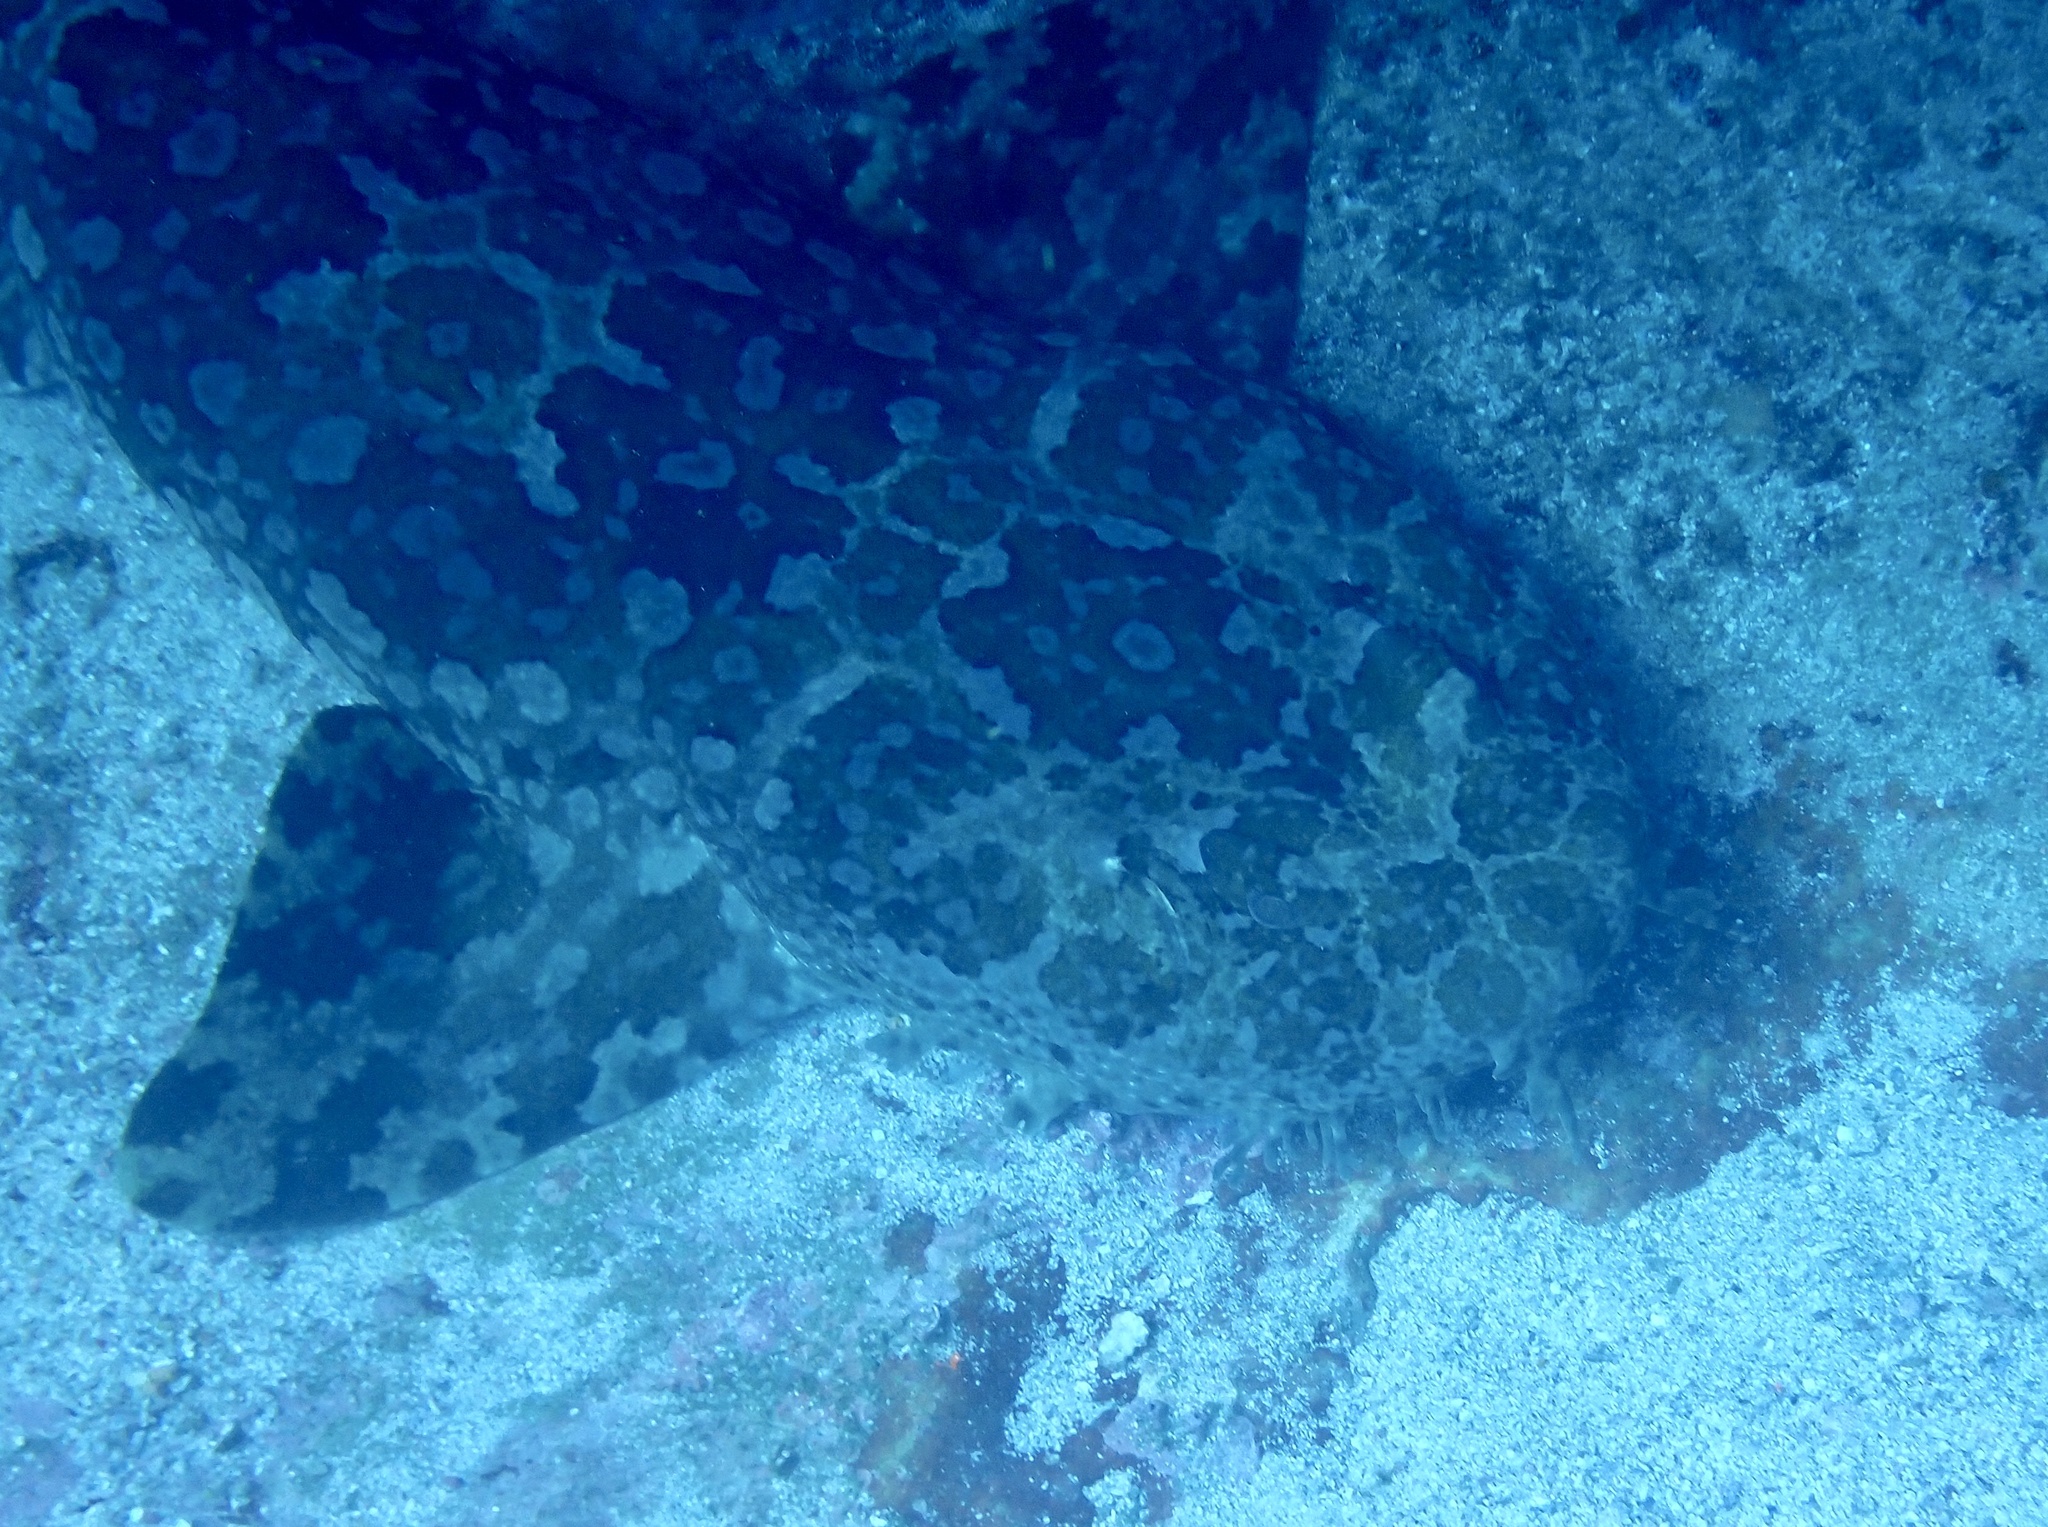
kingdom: Animalia
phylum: Chordata
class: Elasmobranchii
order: Orectolobiformes
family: Orectolobidae
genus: Orectolobus
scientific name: Orectolobus halei
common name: Banded wobbegong
